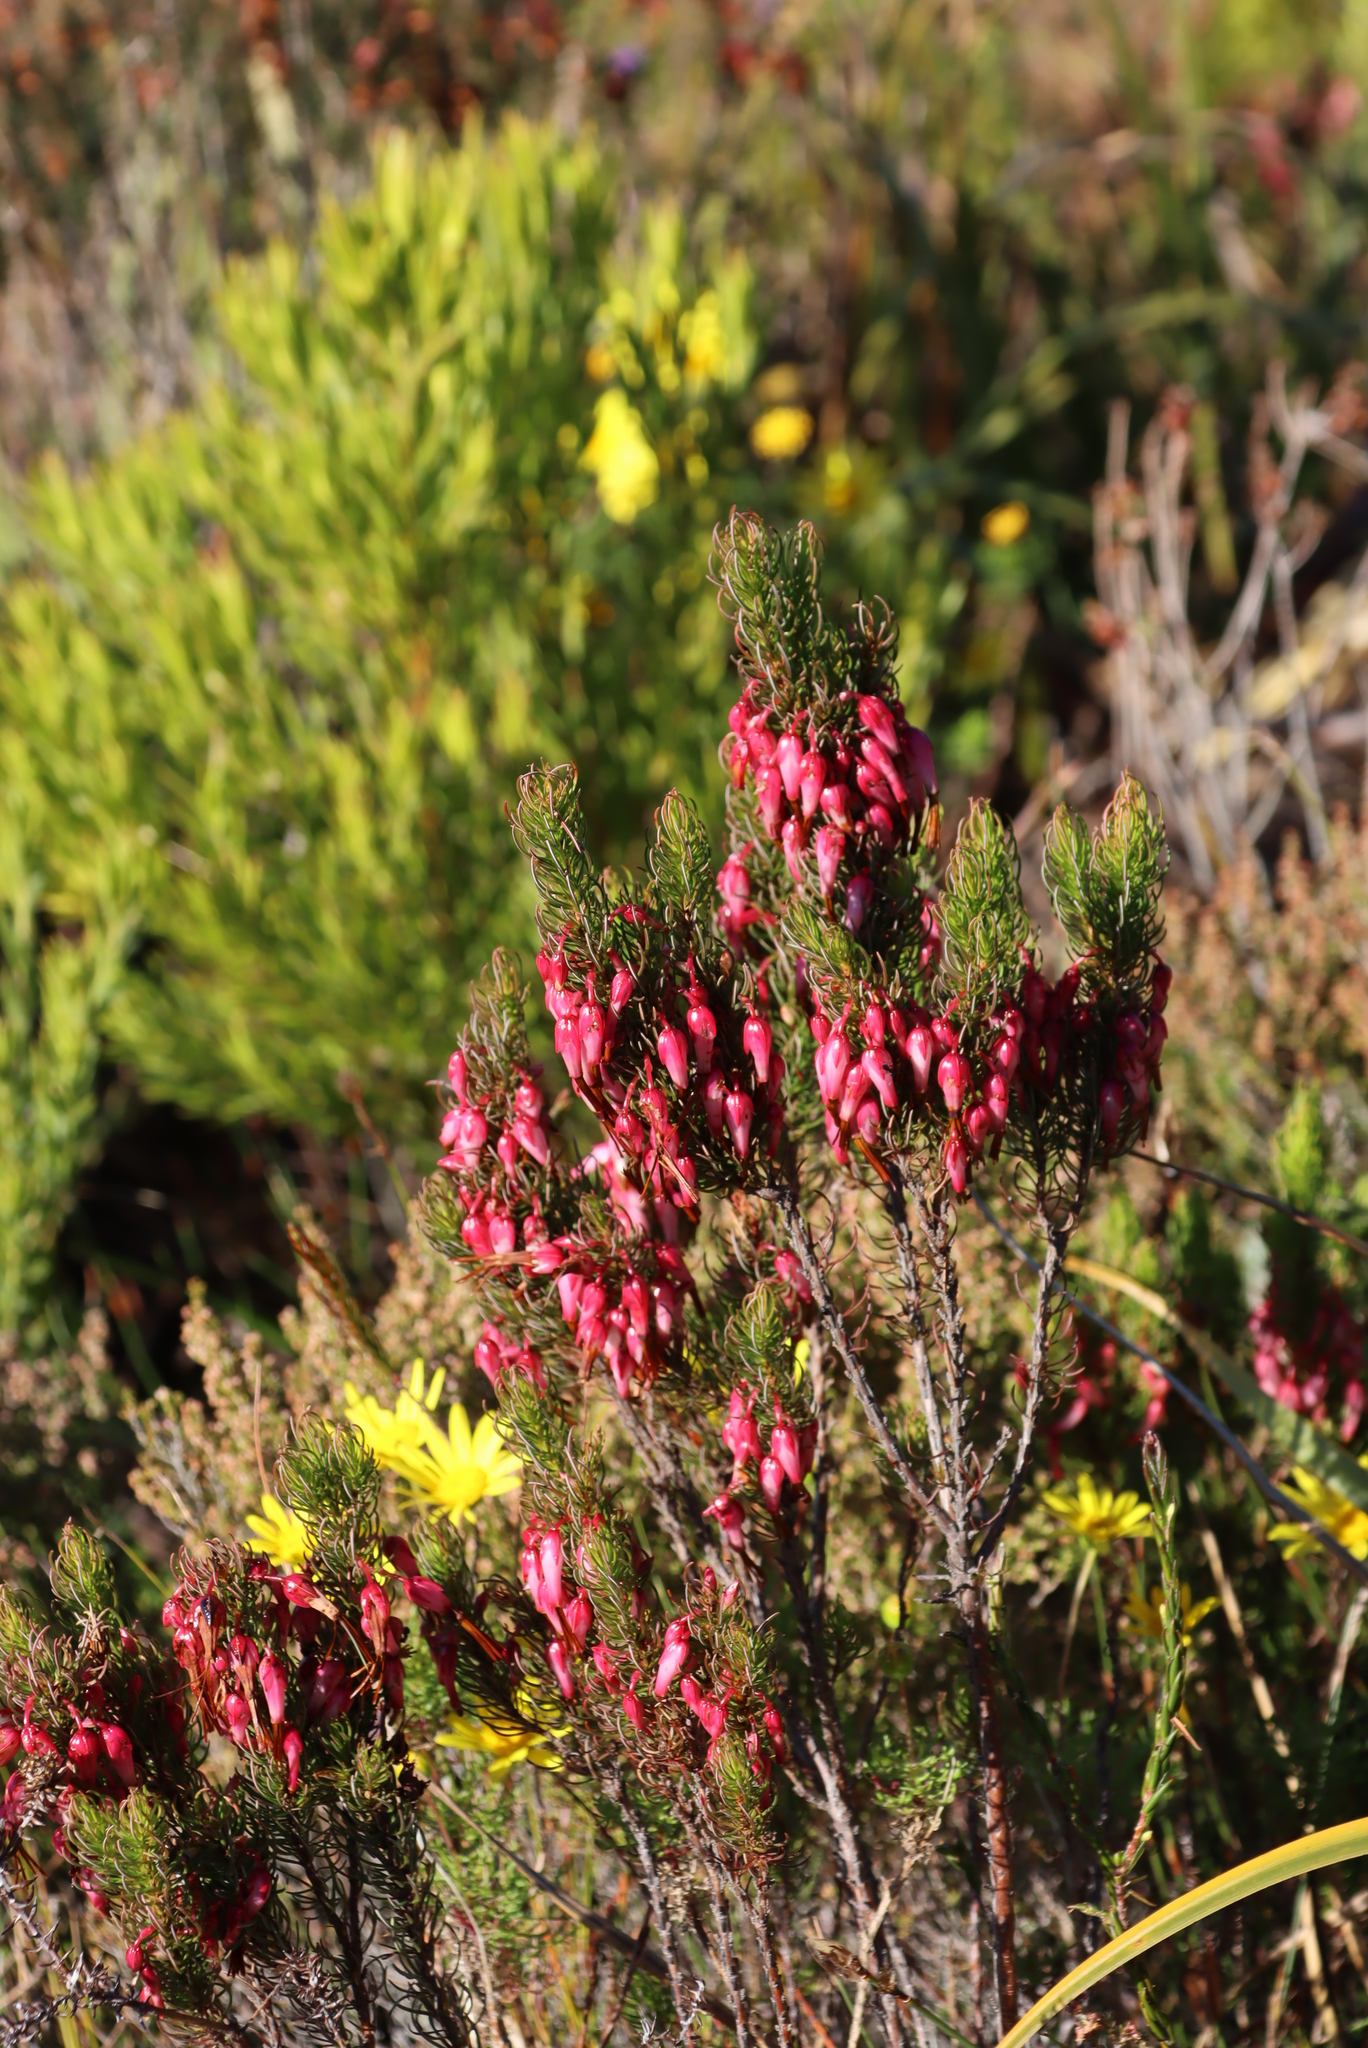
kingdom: Plantae
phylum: Tracheophyta
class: Magnoliopsida
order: Ericales
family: Ericaceae
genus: Erica
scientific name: Erica plukenetii
